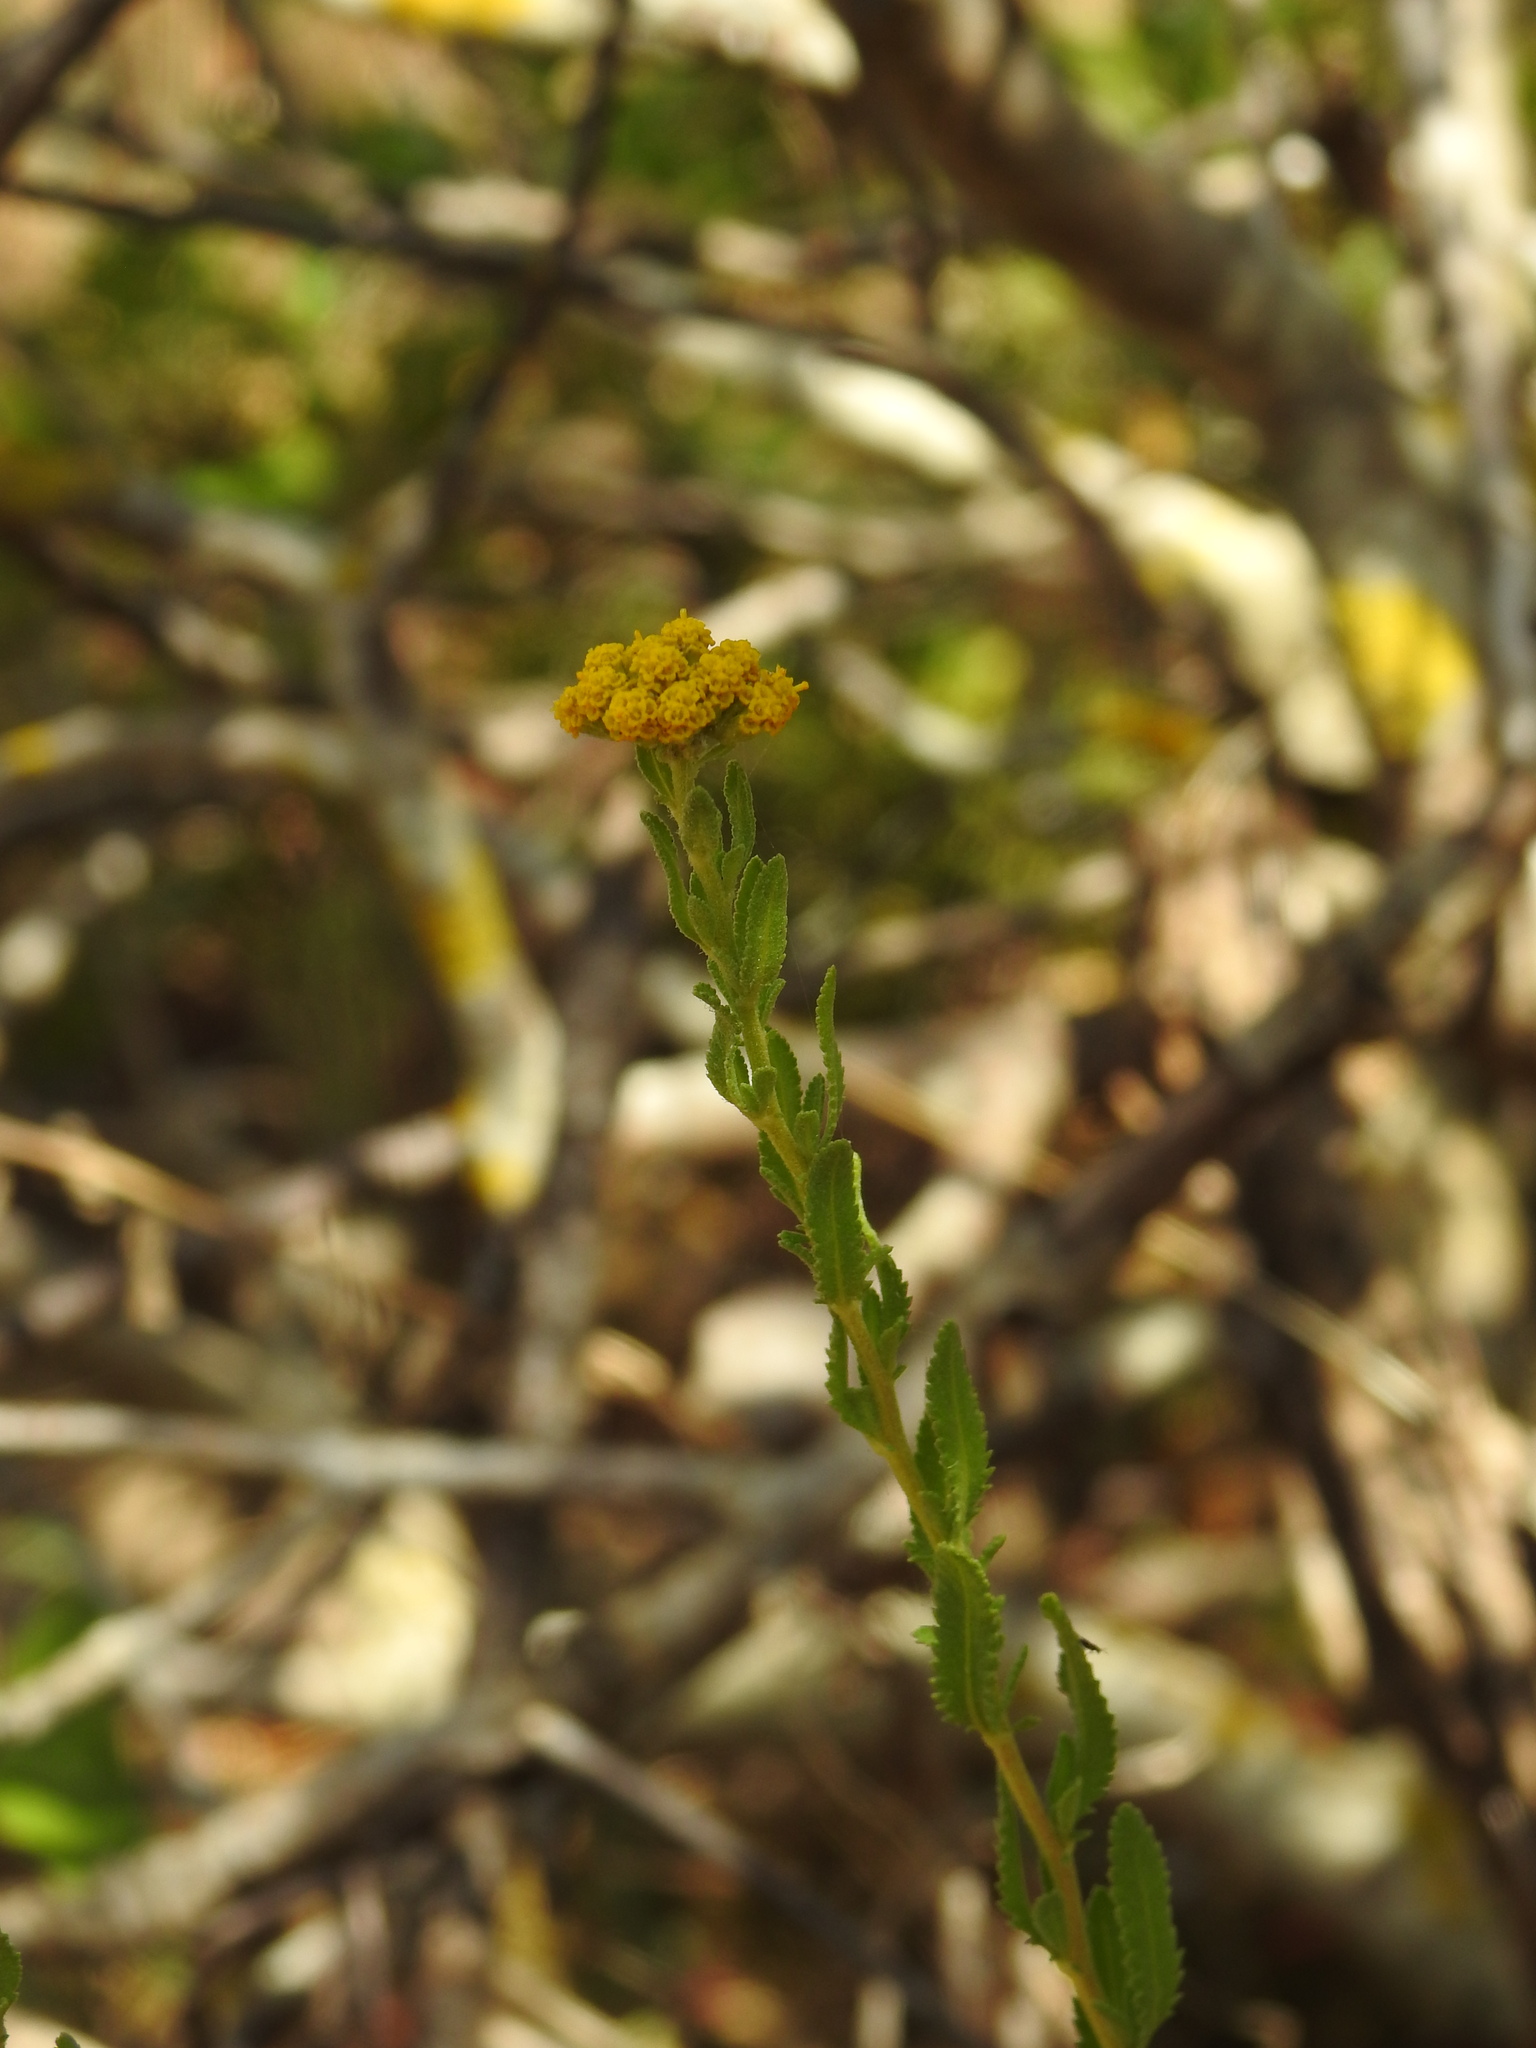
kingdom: Plantae
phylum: Tracheophyta
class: Magnoliopsida
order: Asterales
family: Asteraceae
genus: Achillea
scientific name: Achillea ageratum
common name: Sweet-nancy
